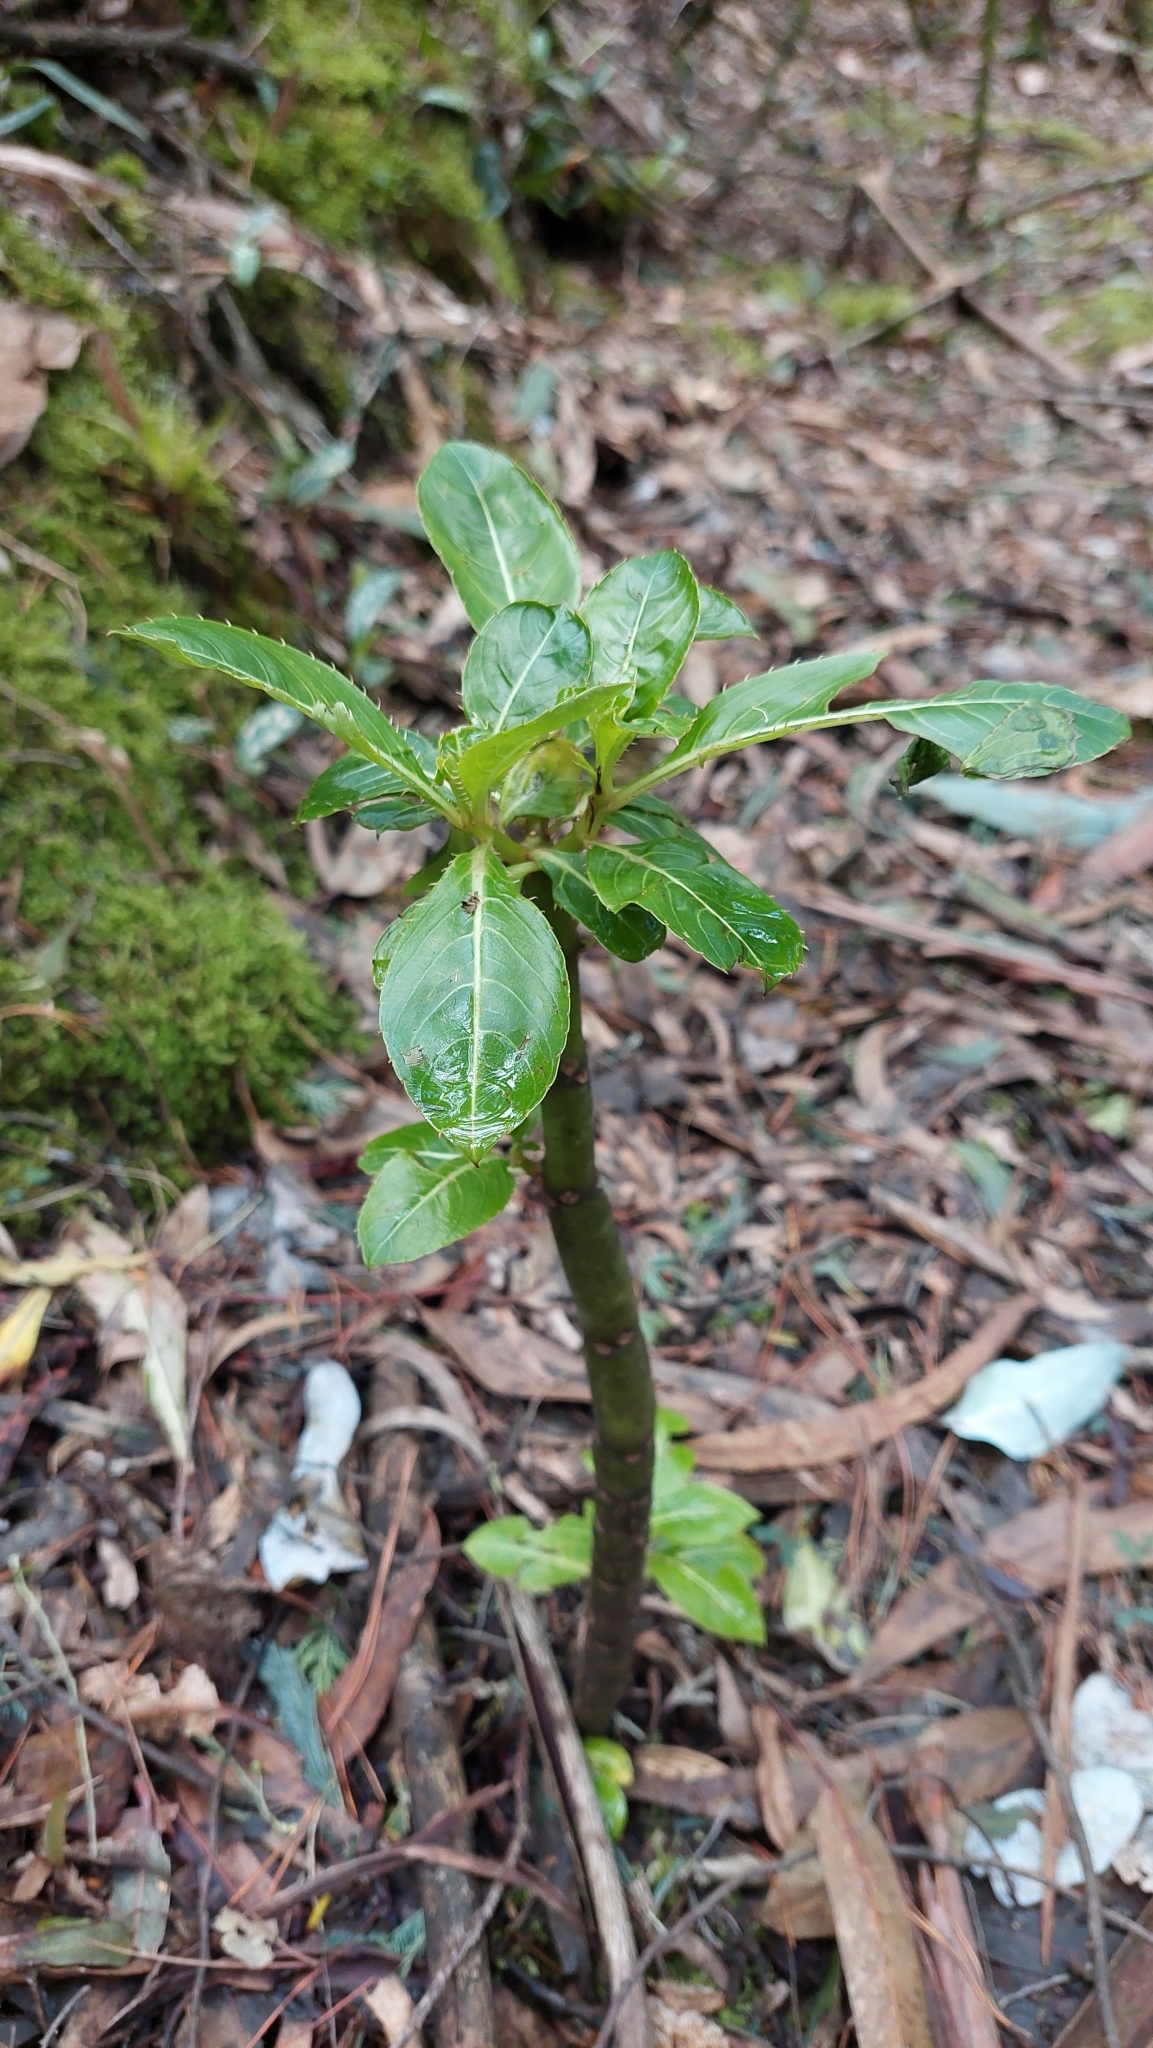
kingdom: Plantae
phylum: Tracheophyta
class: Magnoliopsida
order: Ericales
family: Balsaminaceae
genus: Impatiens
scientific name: Impatiens sodenii
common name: Oliver's touch-me-not
